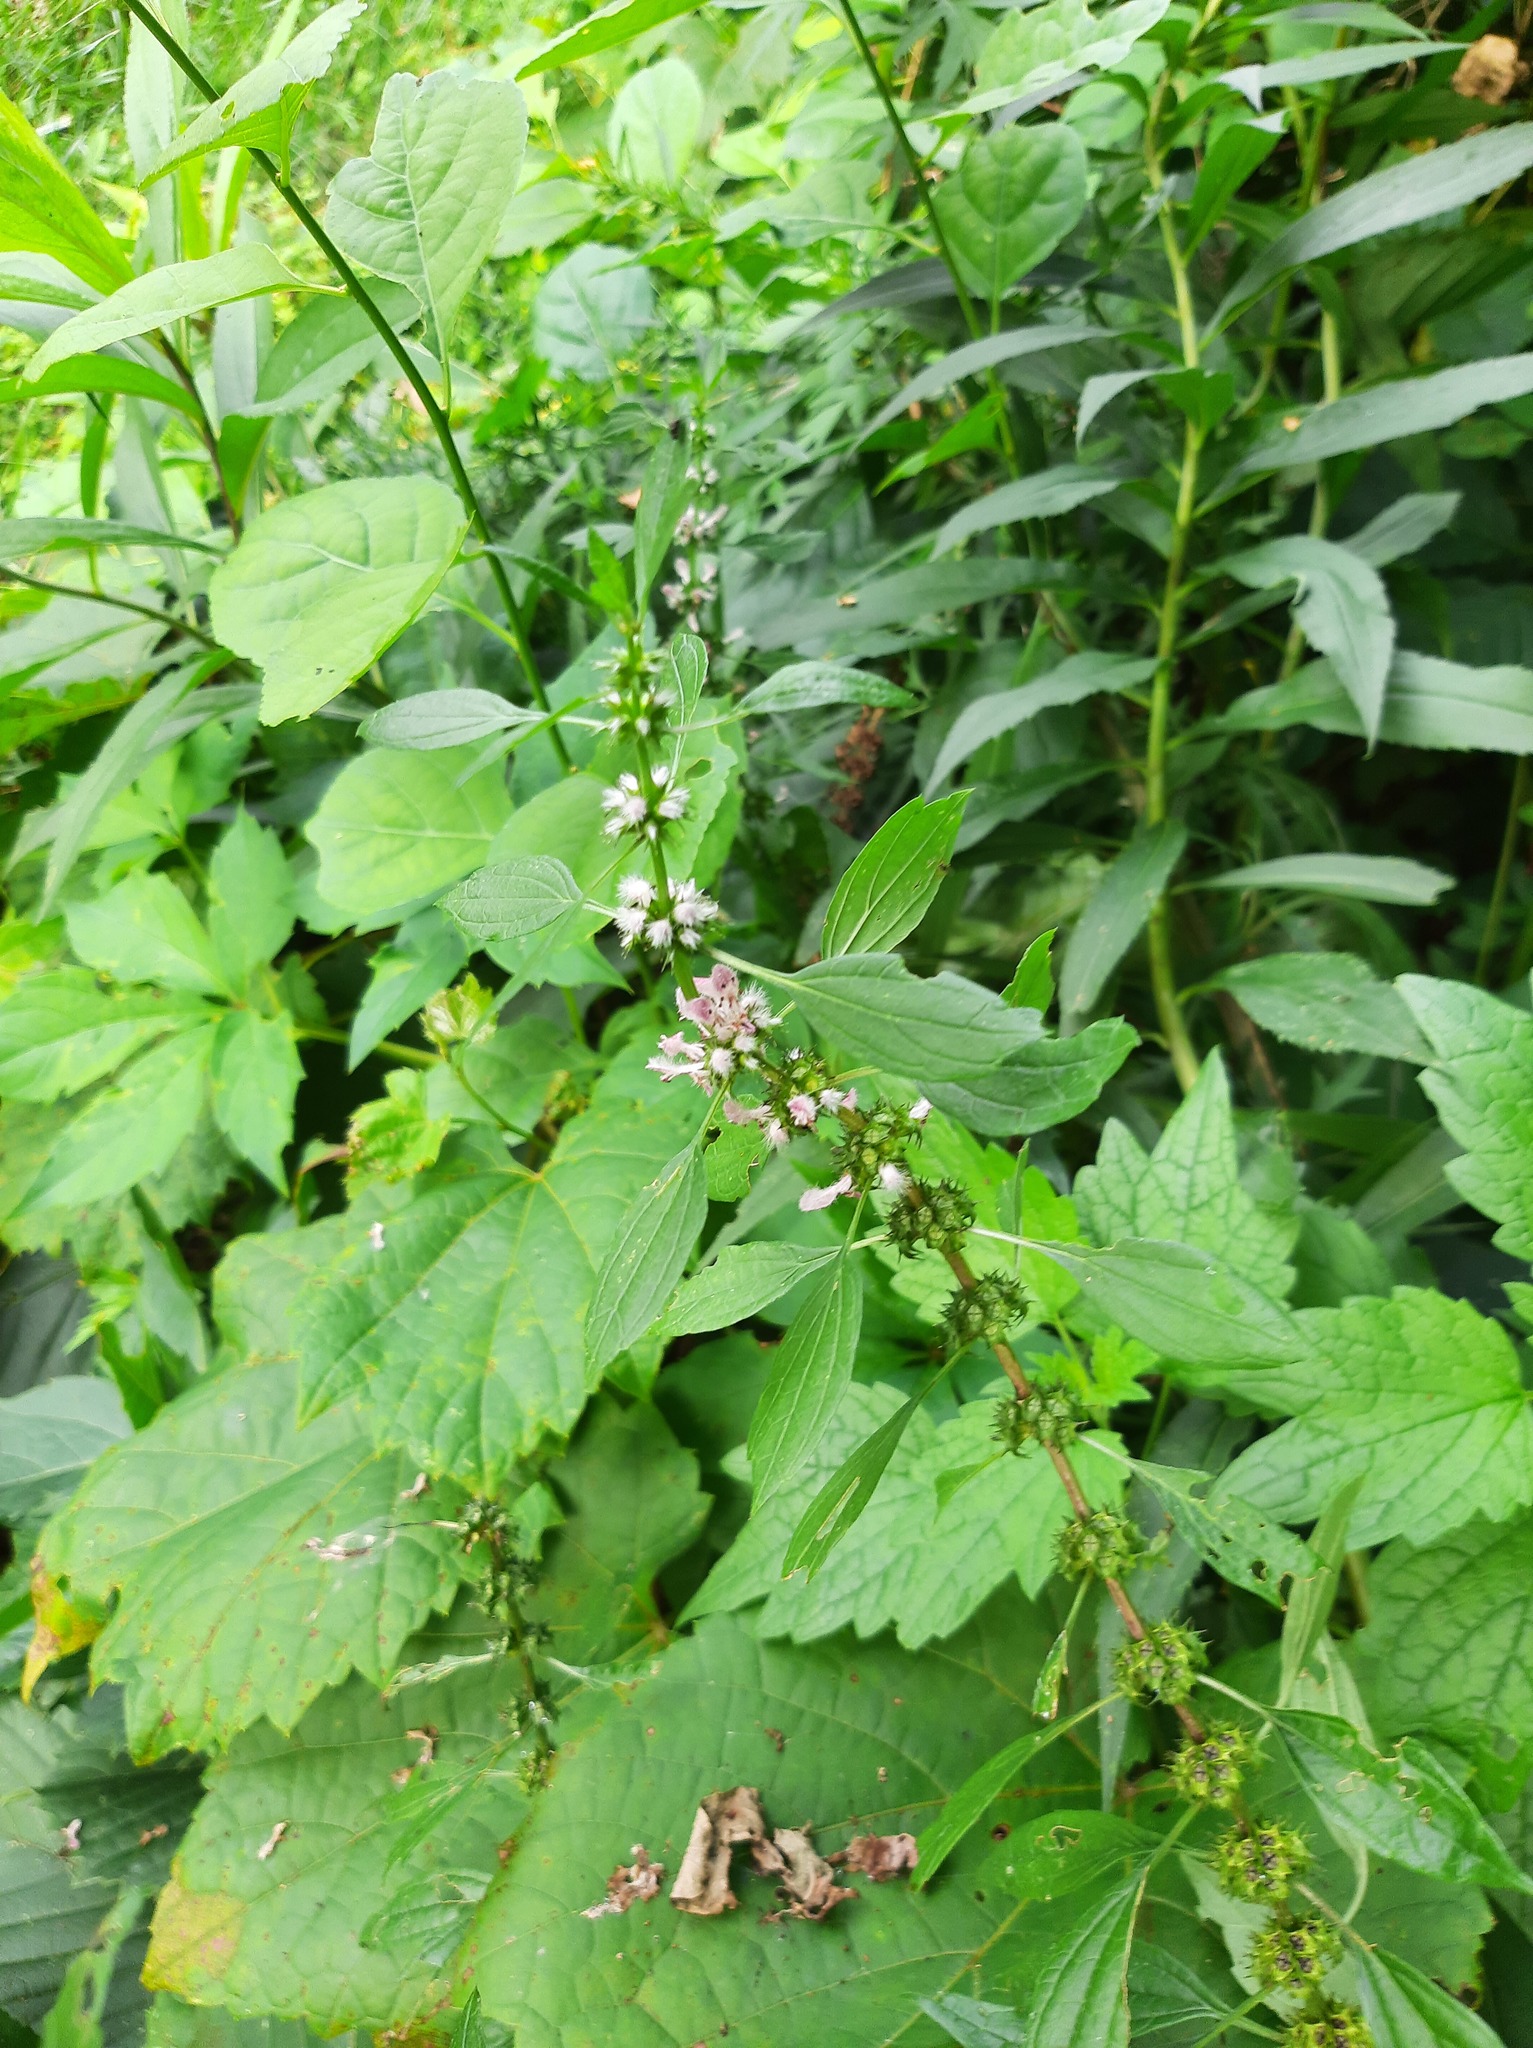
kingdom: Plantae
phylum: Tracheophyta
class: Magnoliopsida
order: Lamiales
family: Lamiaceae
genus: Leonurus
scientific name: Leonurus cardiaca
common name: Motherwort
